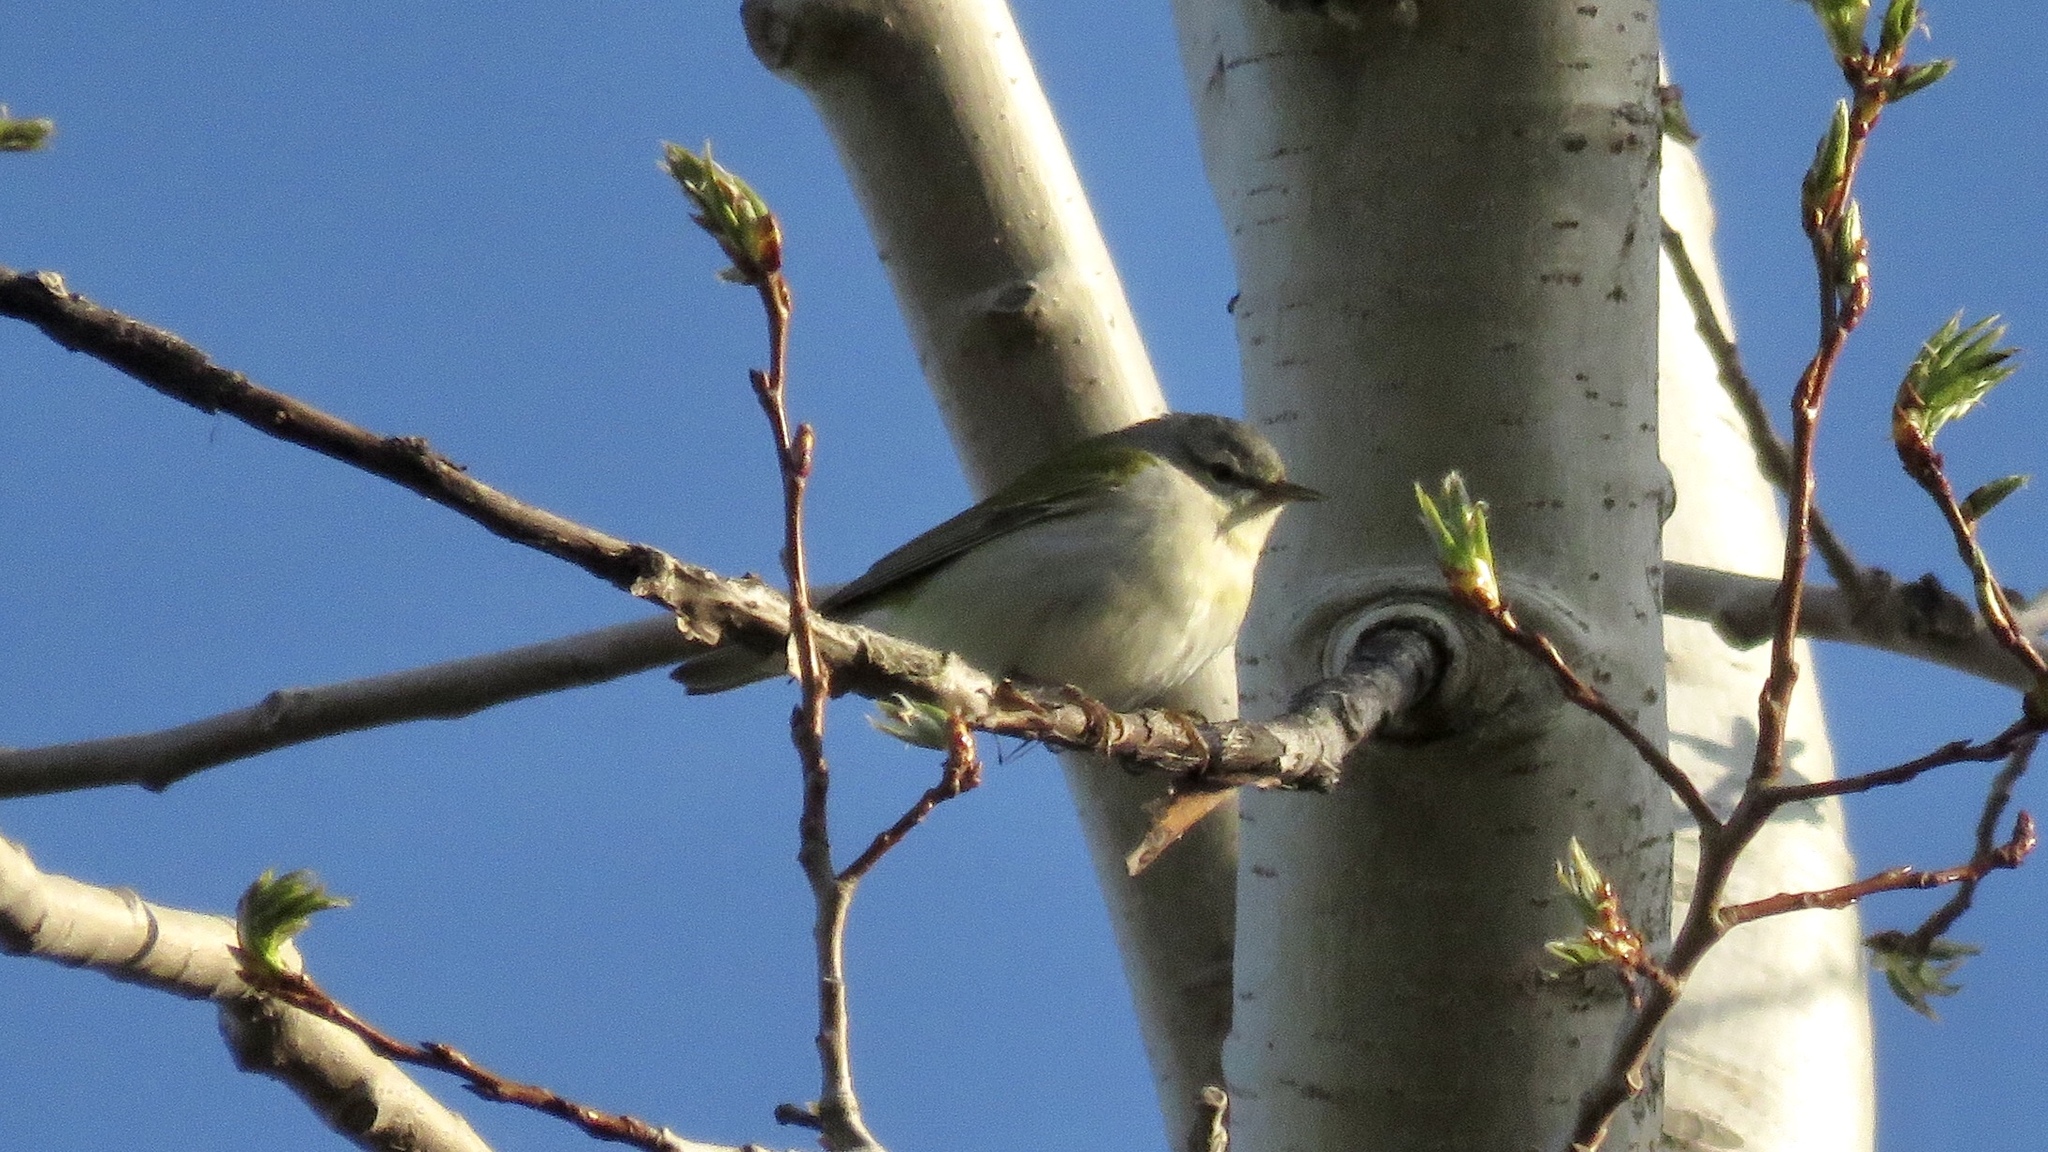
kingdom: Animalia
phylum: Chordata
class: Aves
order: Passeriformes
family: Parulidae
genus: Leiothlypis
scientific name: Leiothlypis peregrina
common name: Tennessee warbler
